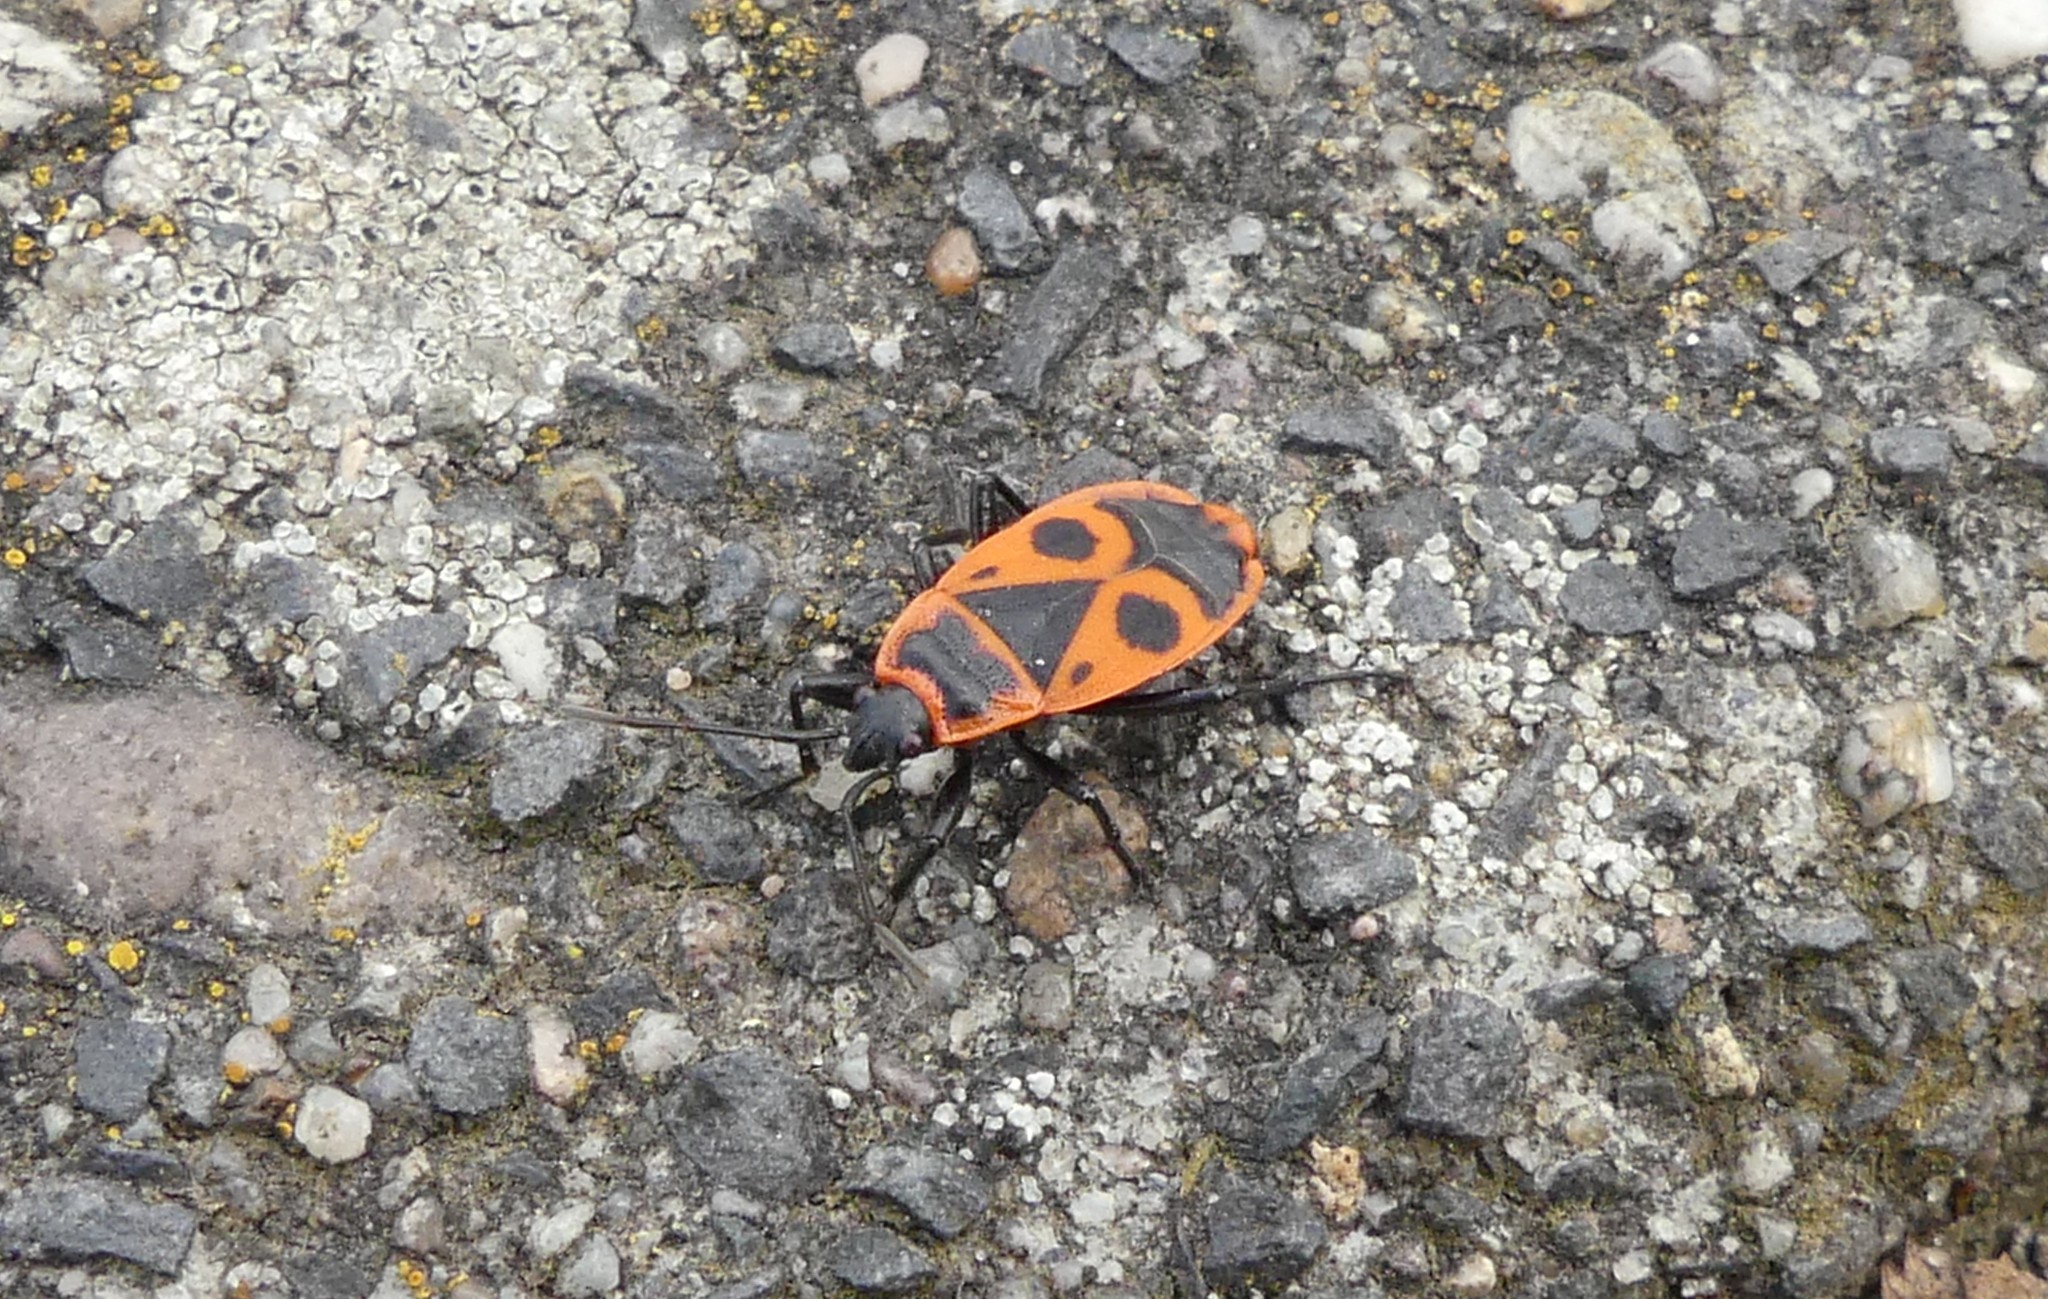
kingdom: Animalia
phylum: Arthropoda
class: Insecta
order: Hemiptera
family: Pyrrhocoridae
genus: Pyrrhocoris
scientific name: Pyrrhocoris apterus
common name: Firebug
